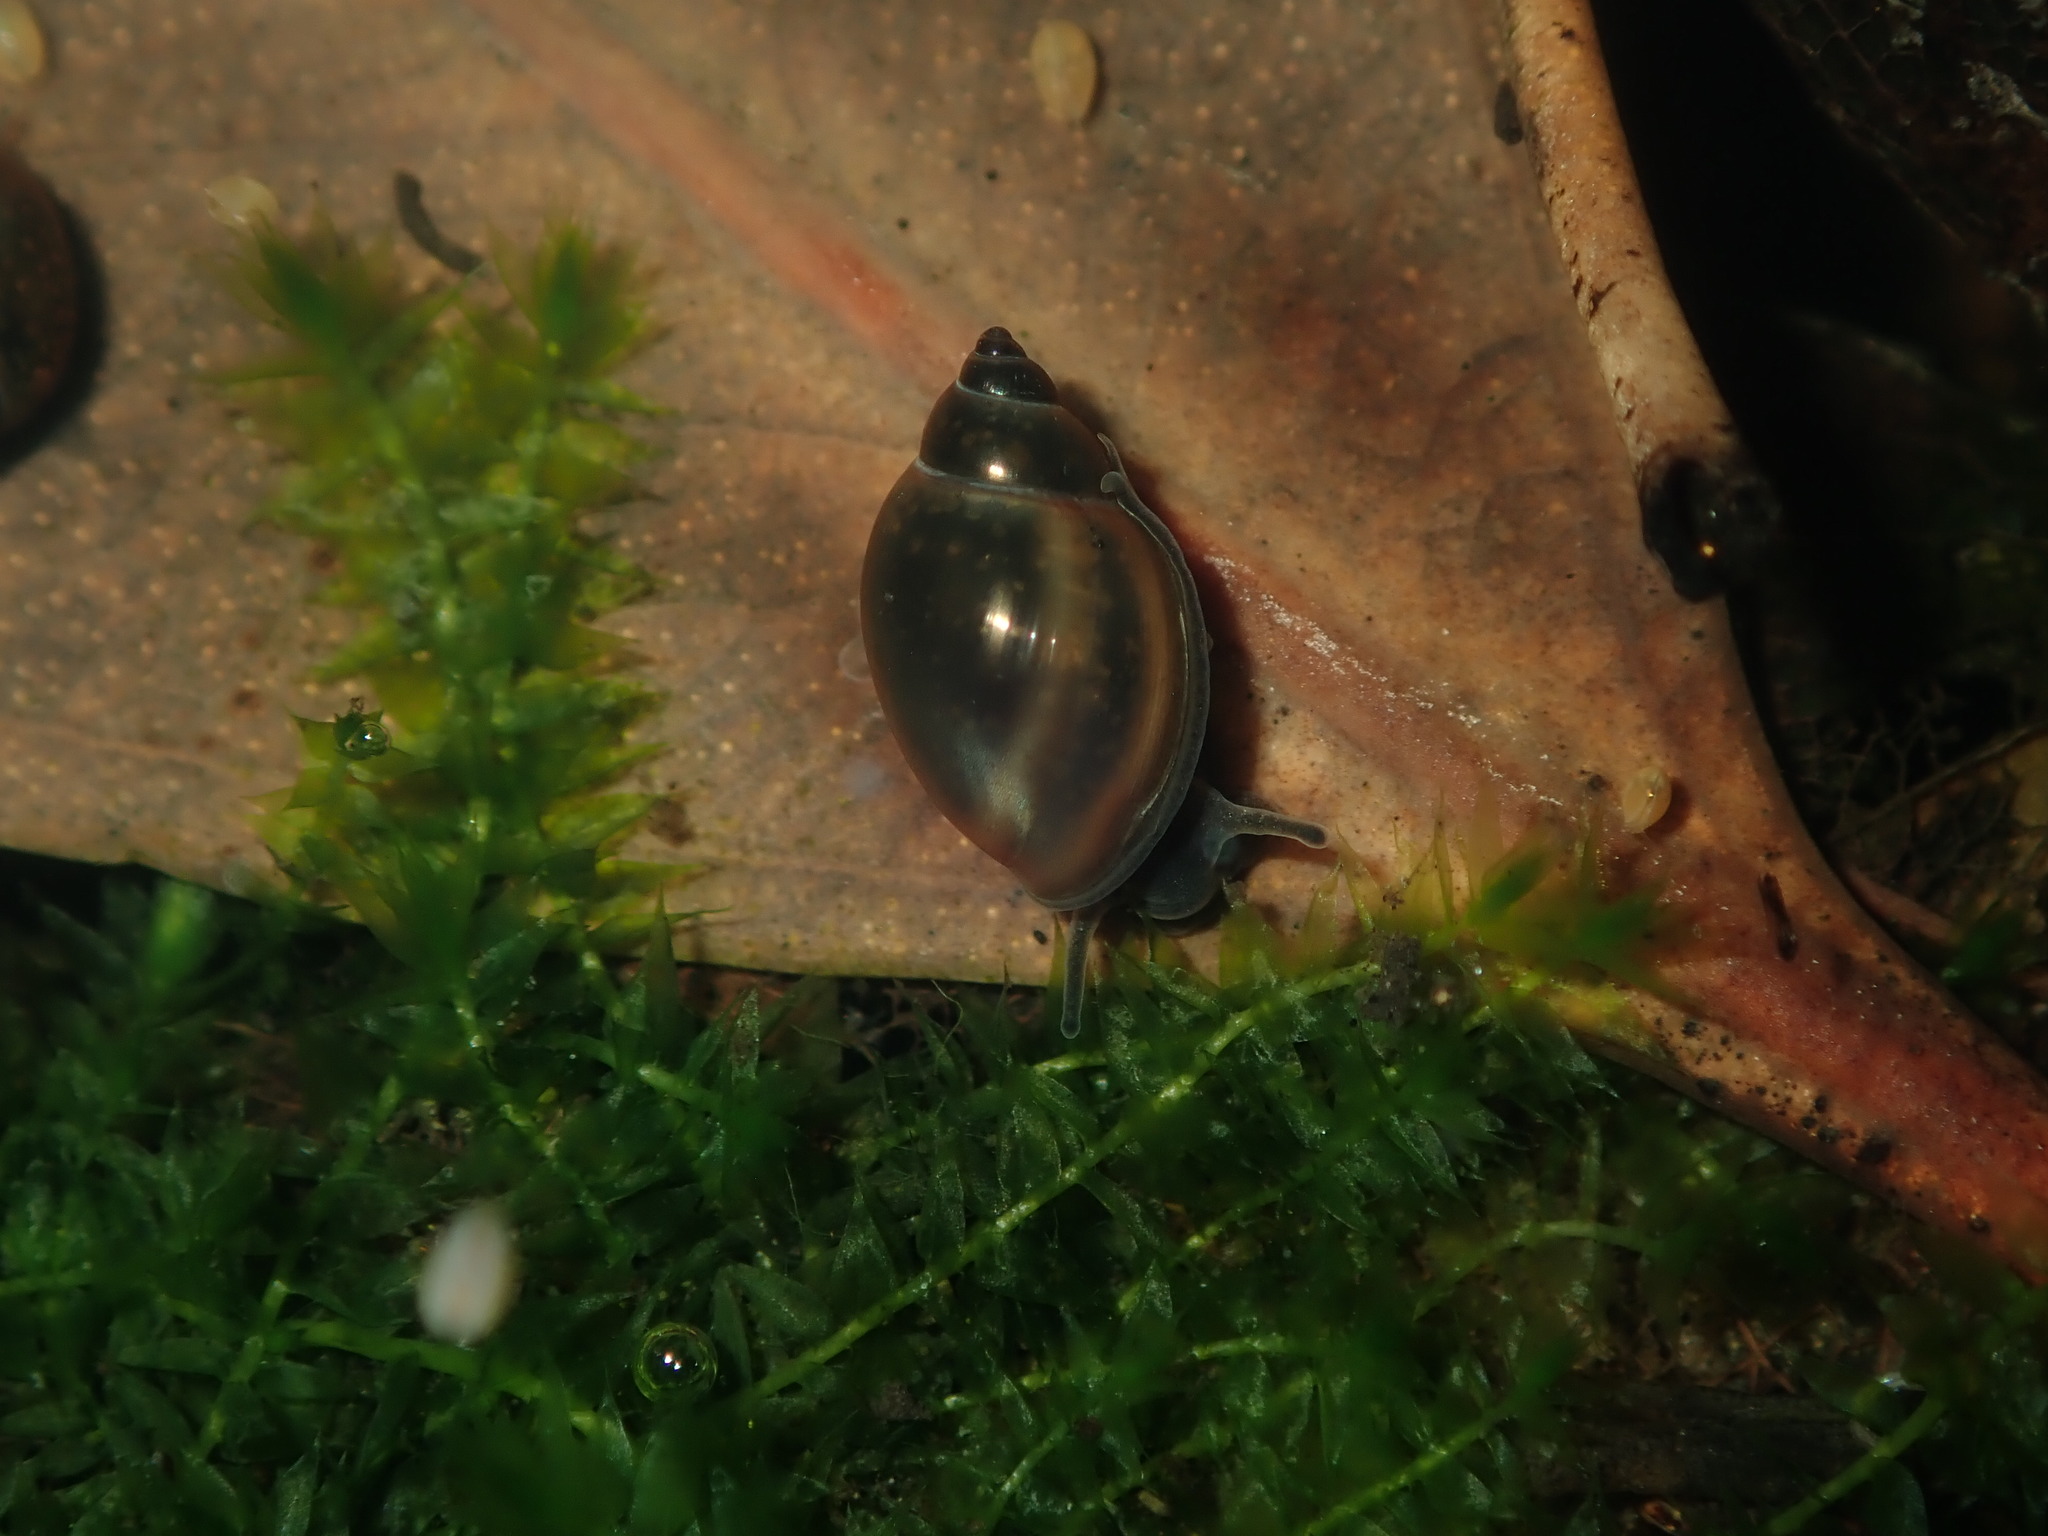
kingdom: Animalia
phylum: Mollusca
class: Gastropoda
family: Physidae
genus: Physella
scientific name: Physella acuta
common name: European physa
